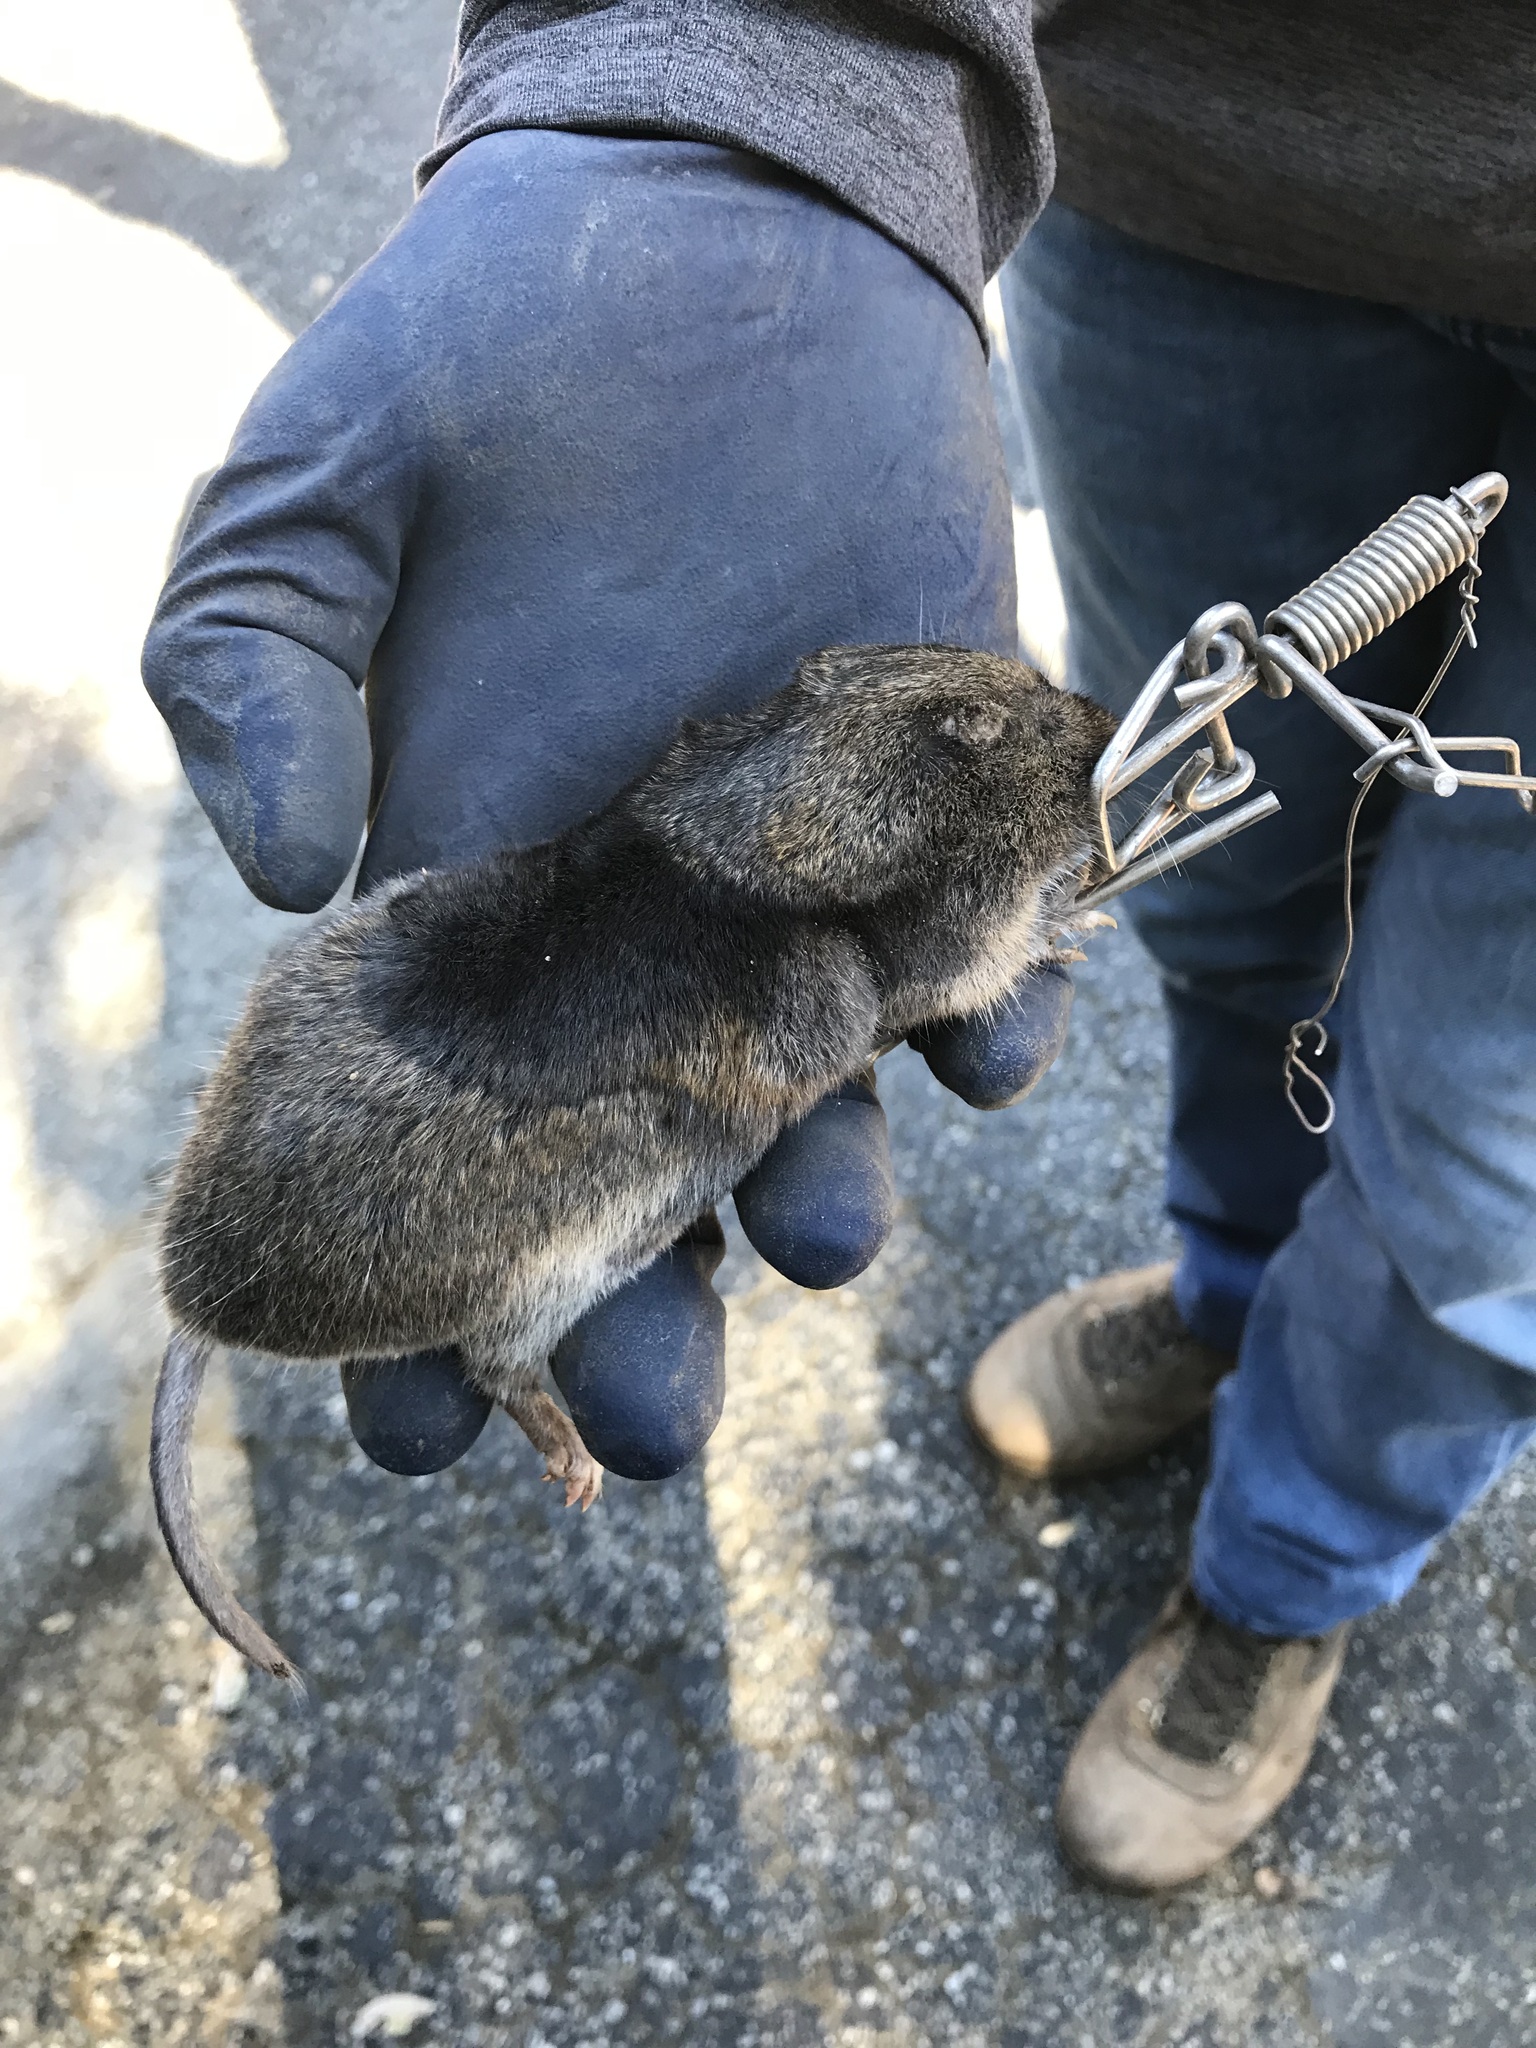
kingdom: Animalia
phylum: Chordata
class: Mammalia
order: Rodentia
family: Geomyidae
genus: Thomomys
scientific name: Thomomys bottae
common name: Botta's pocket gopher
